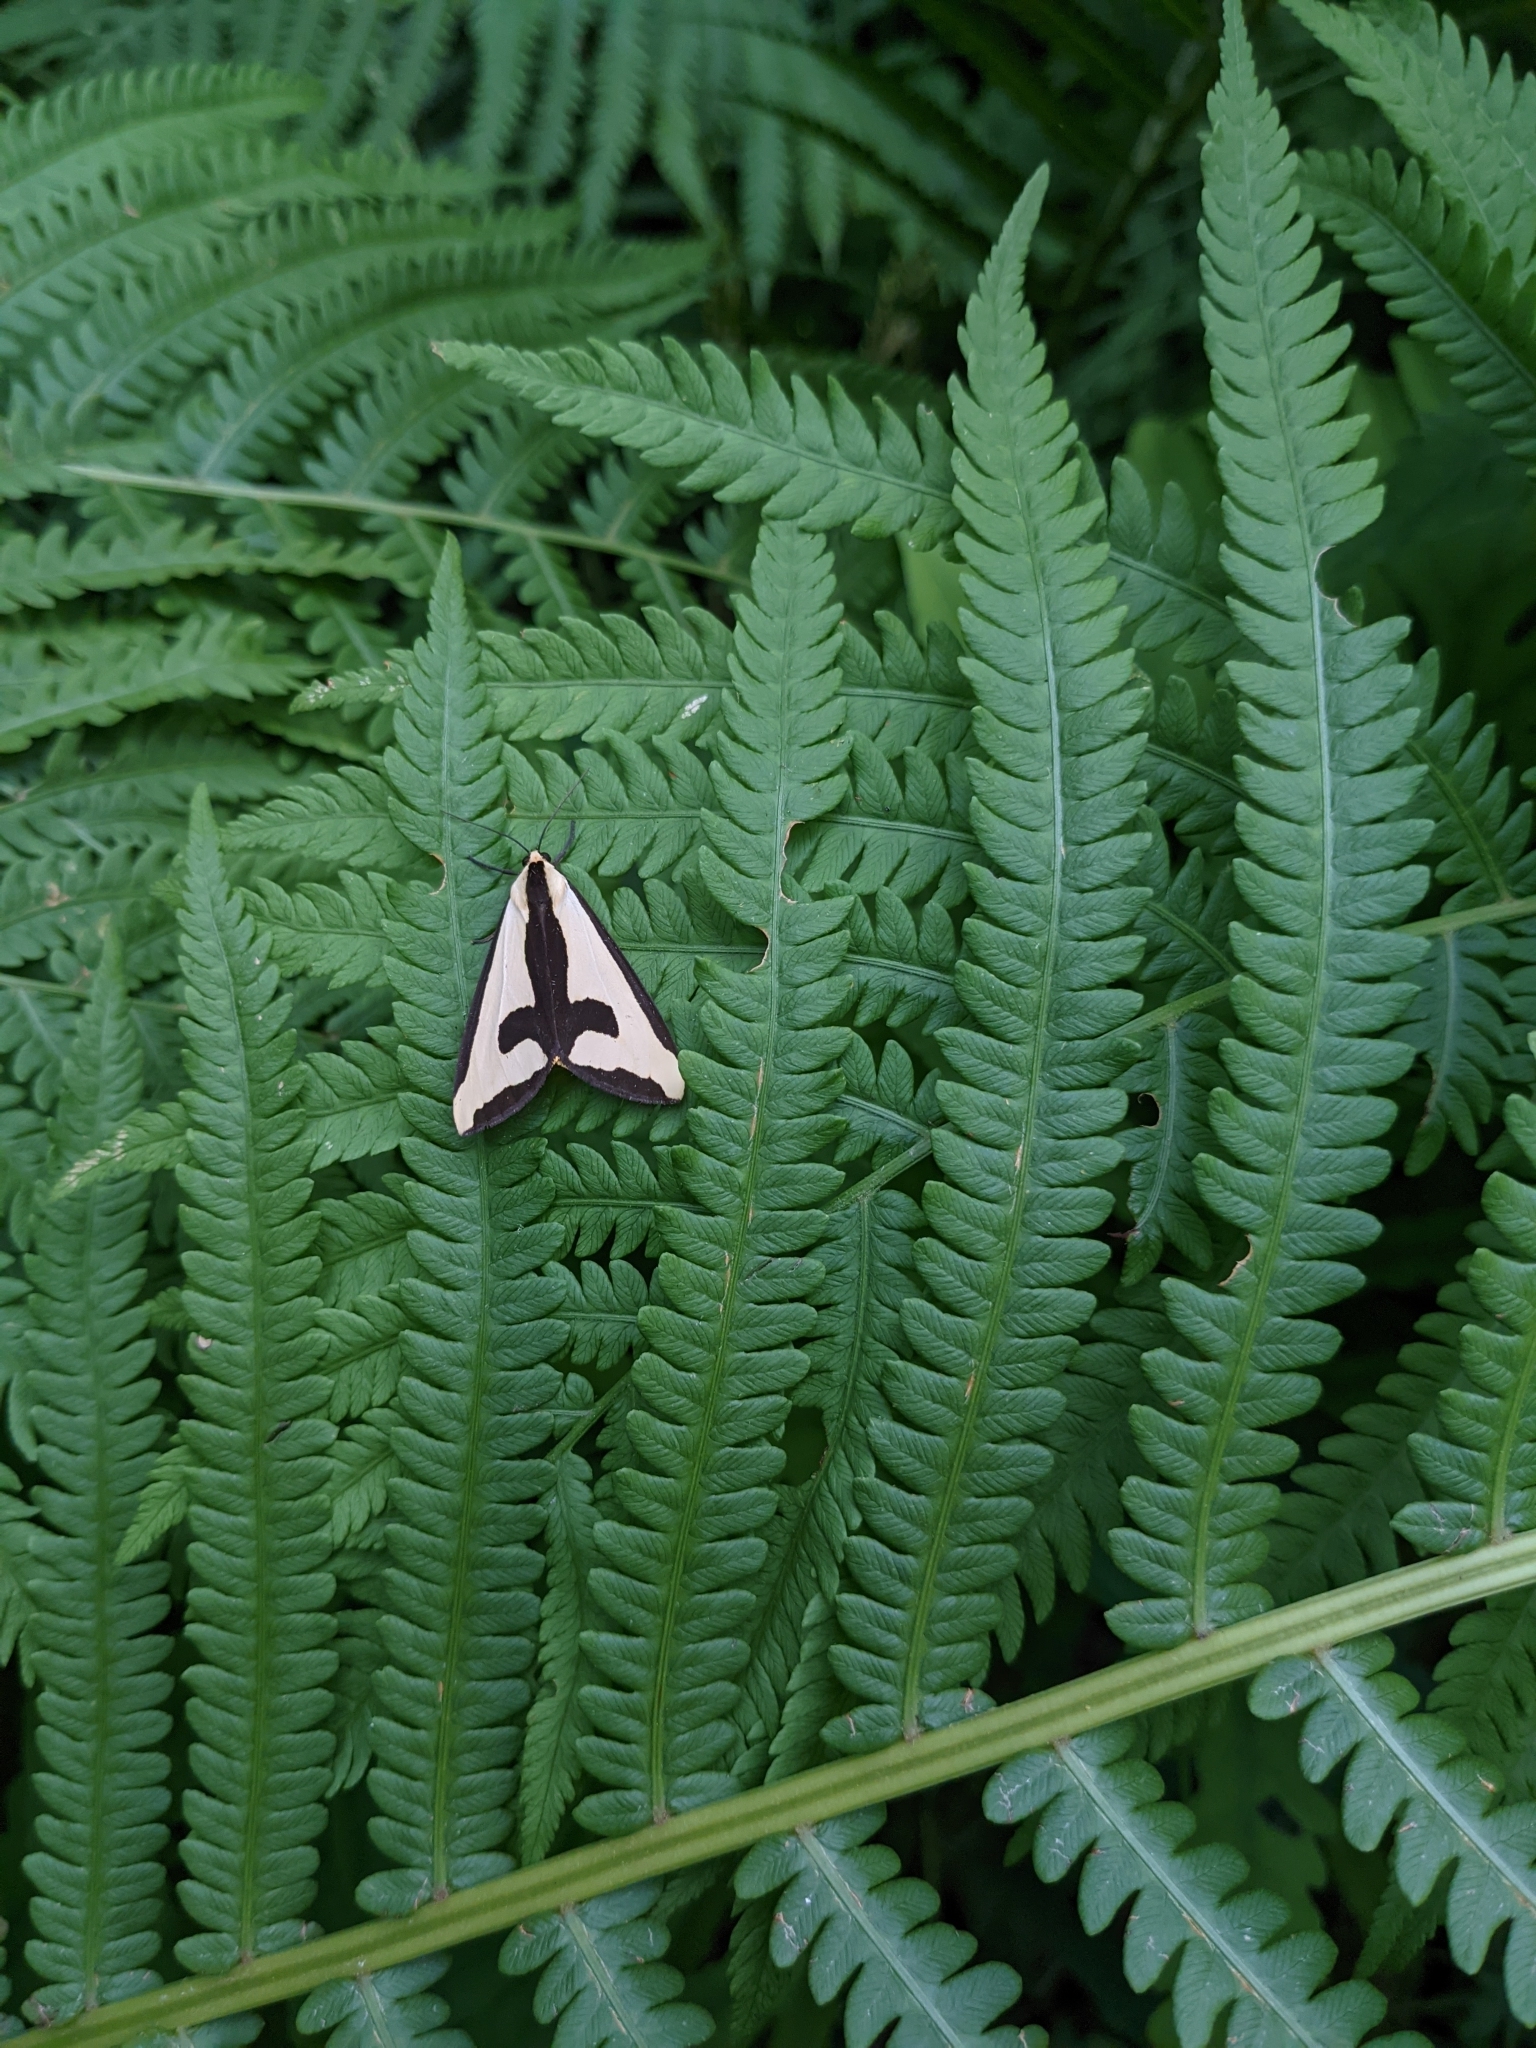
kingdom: Animalia
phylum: Arthropoda
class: Insecta
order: Lepidoptera
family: Erebidae
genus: Haploa
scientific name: Haploa clymene
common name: Clymene moth
